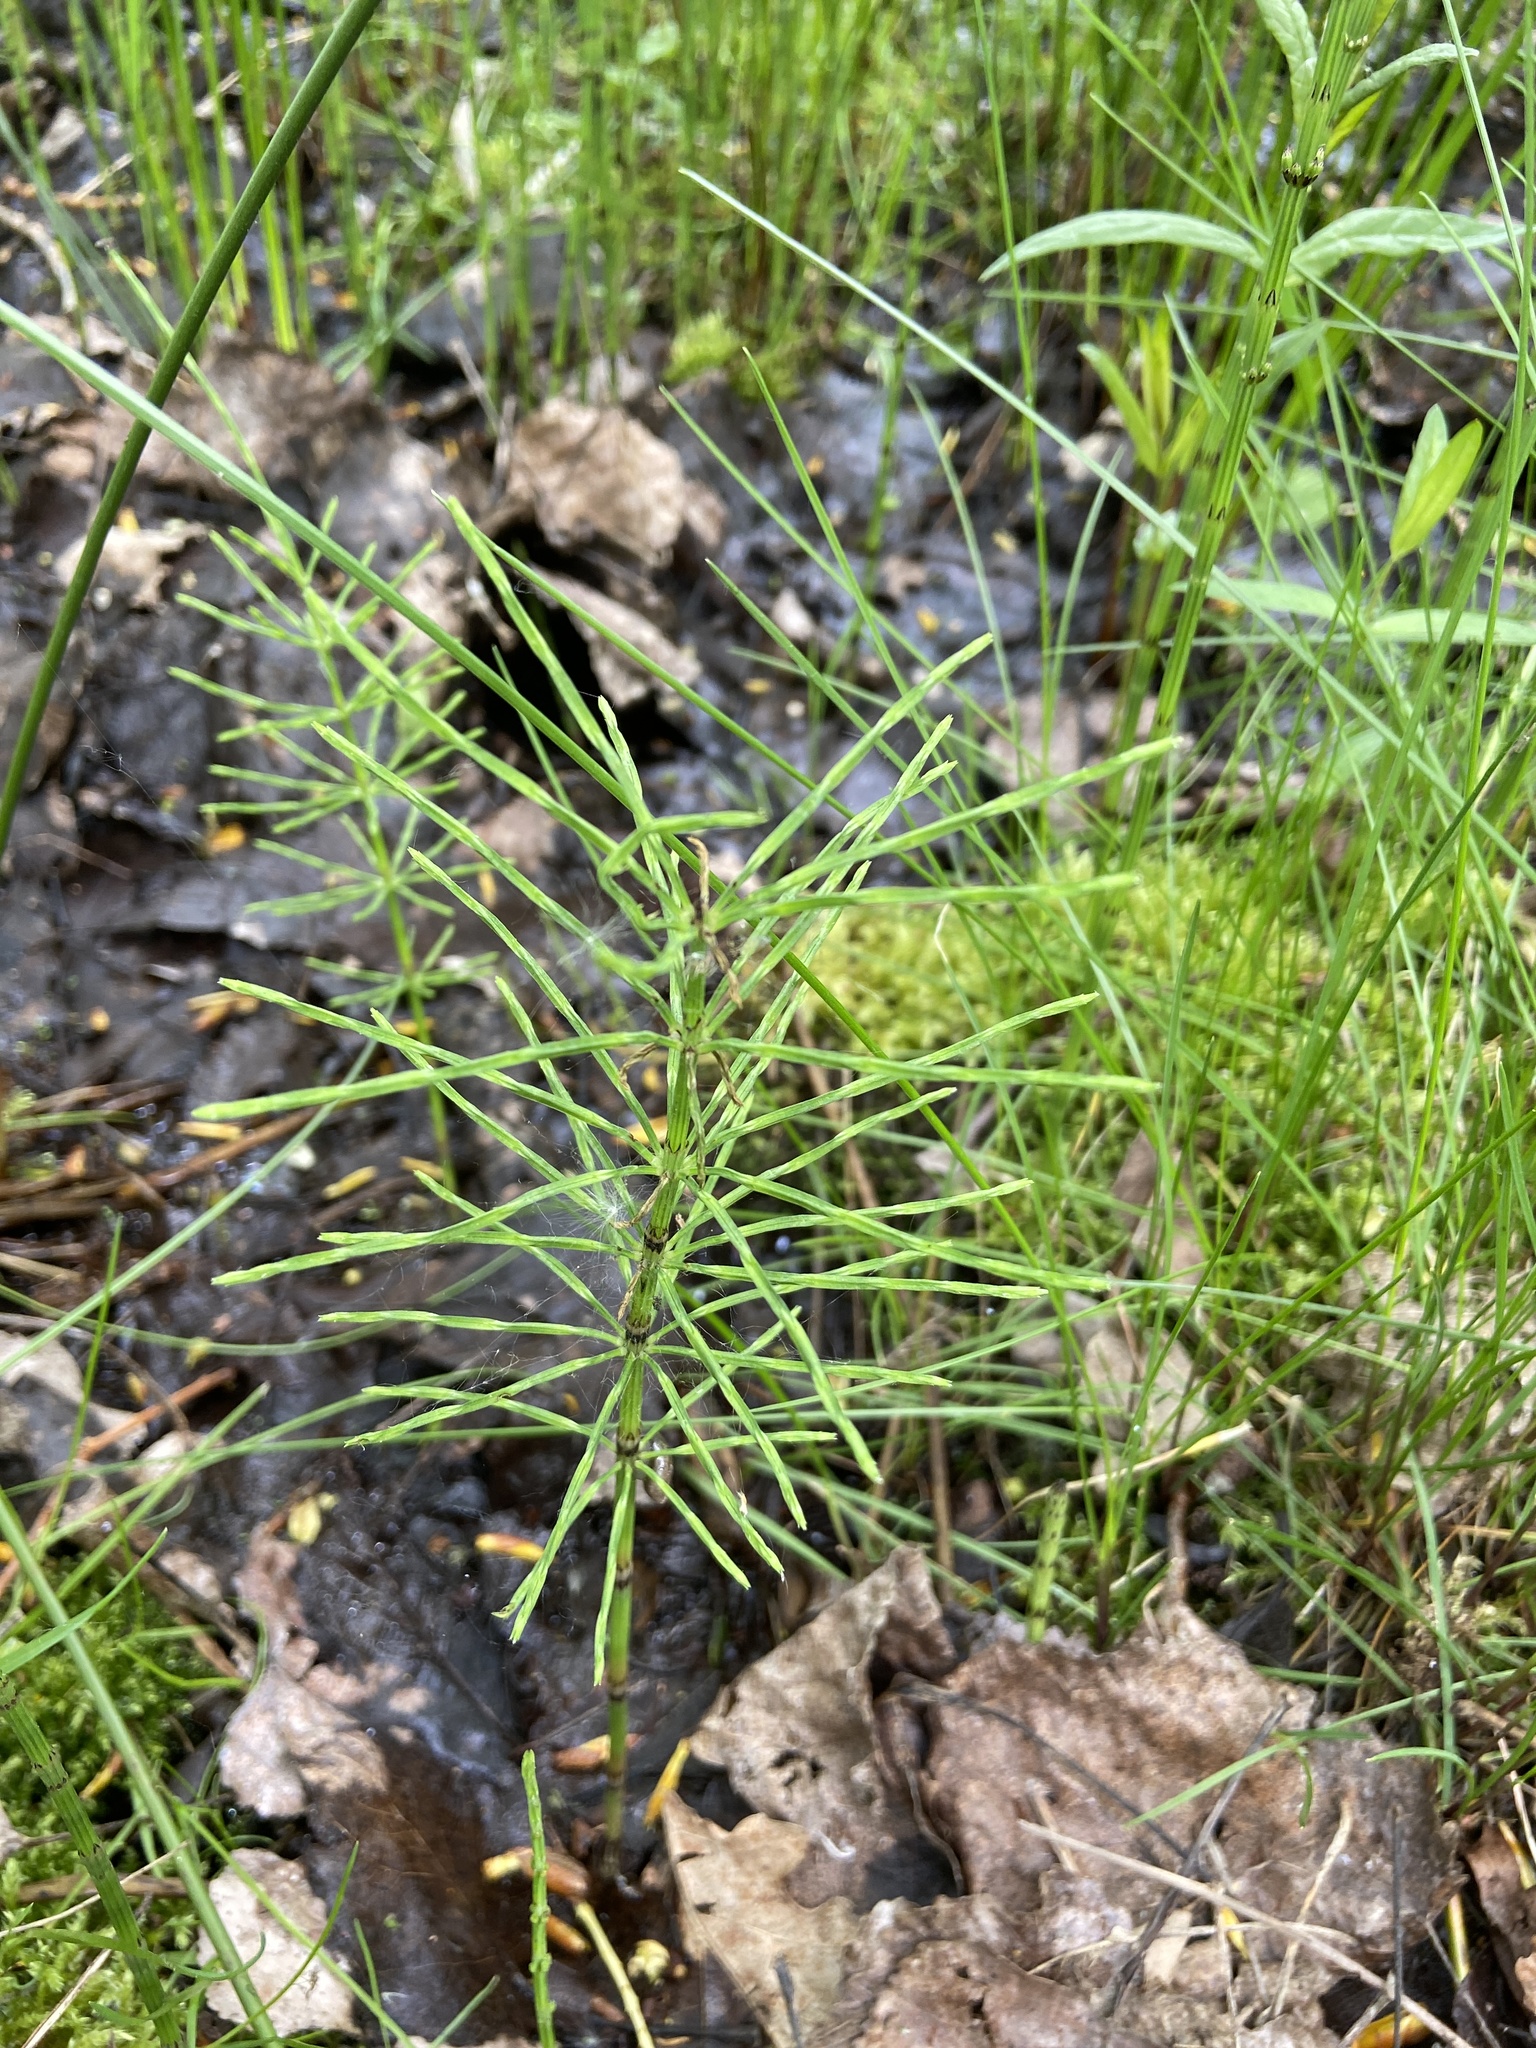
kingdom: Plantae
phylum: Tracheophyta
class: Polypodiopsida
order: Equisetales
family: Equisetaceae
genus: Equisetum
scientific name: Equisetum arvense
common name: Field horsetail
